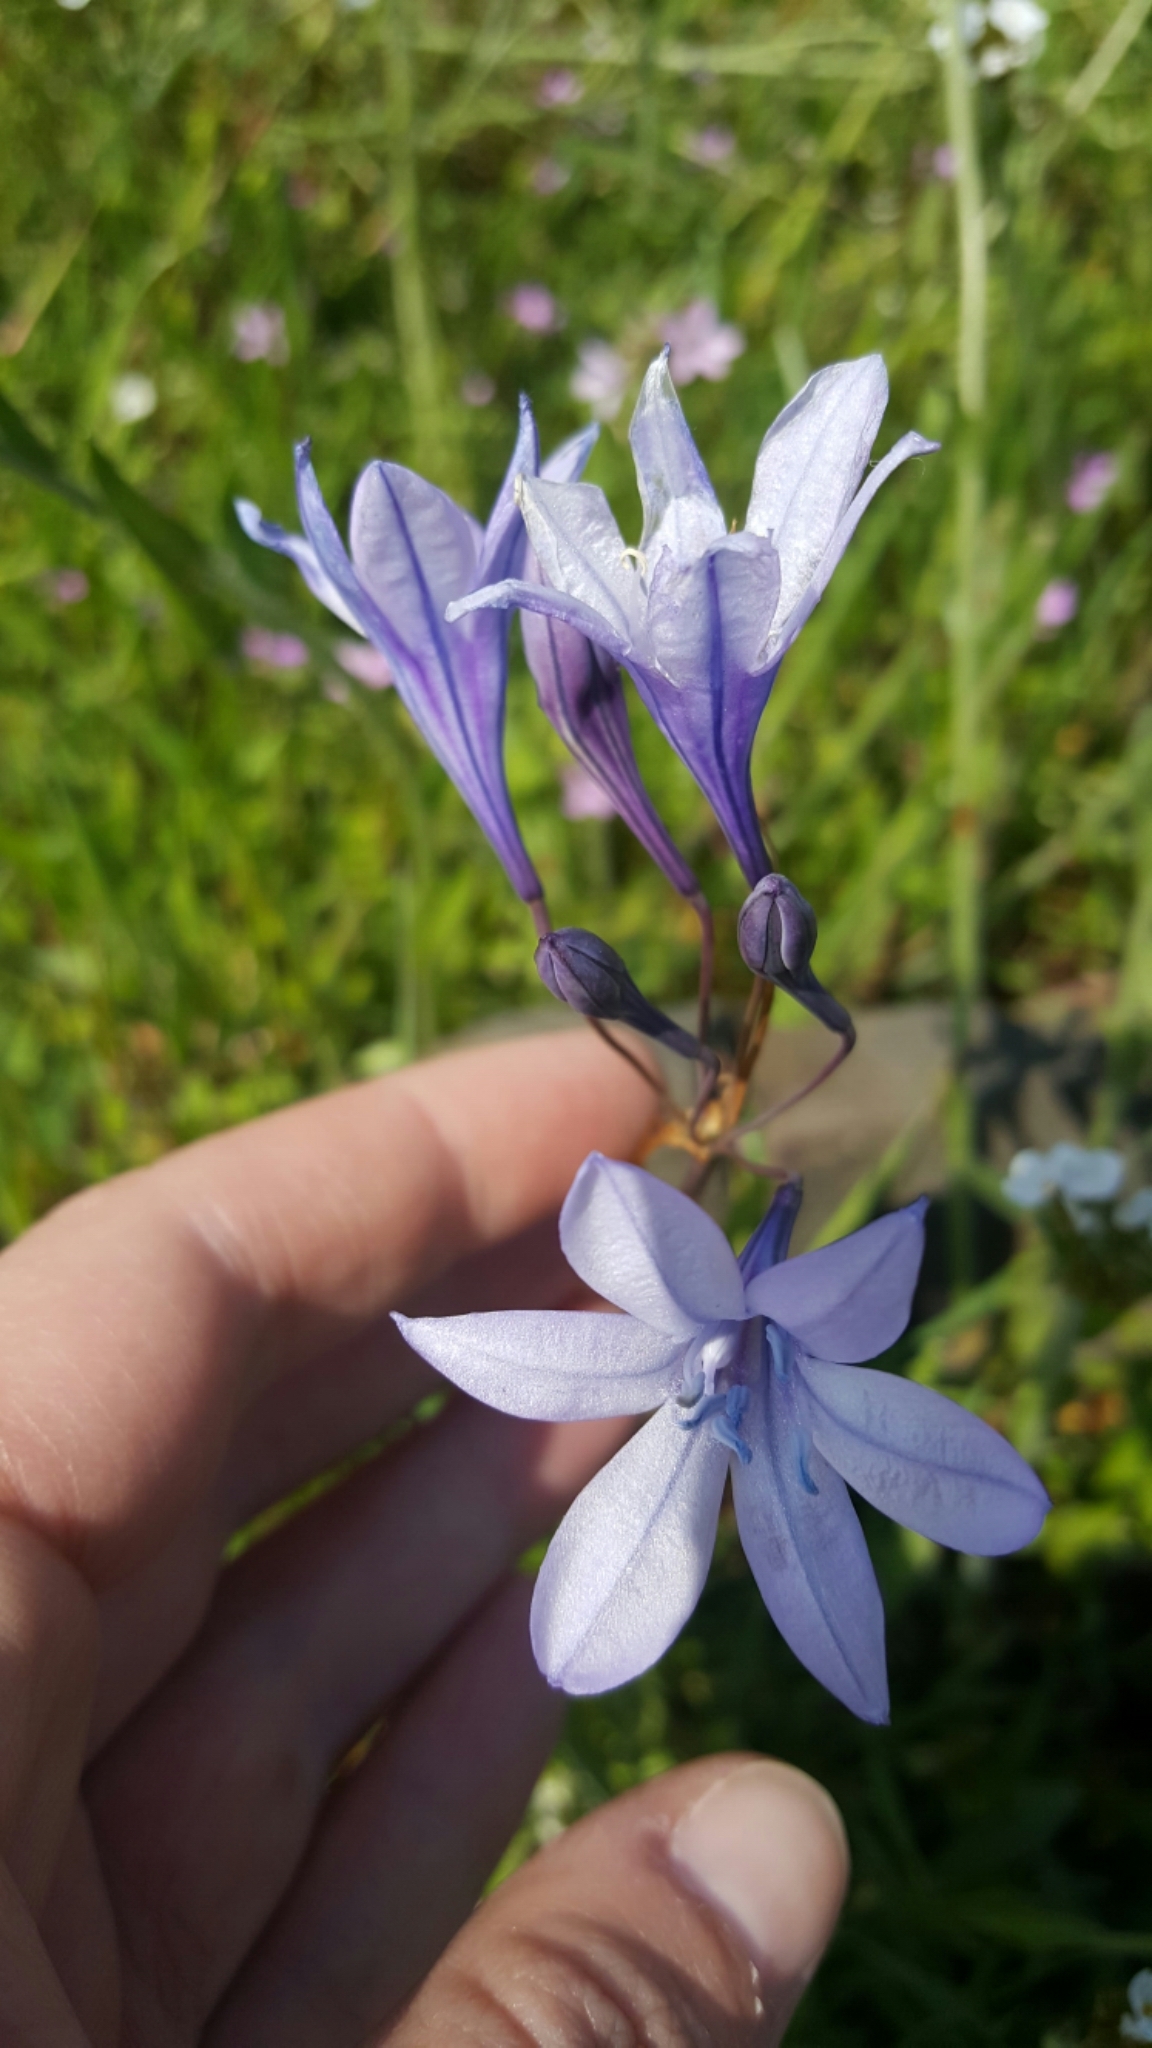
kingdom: Plantae
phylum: Tracheophyta
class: Liliopsida
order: Asparagales
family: Asparagaceae
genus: Triteleia
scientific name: Triteleia laxa
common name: Triplet-lily
